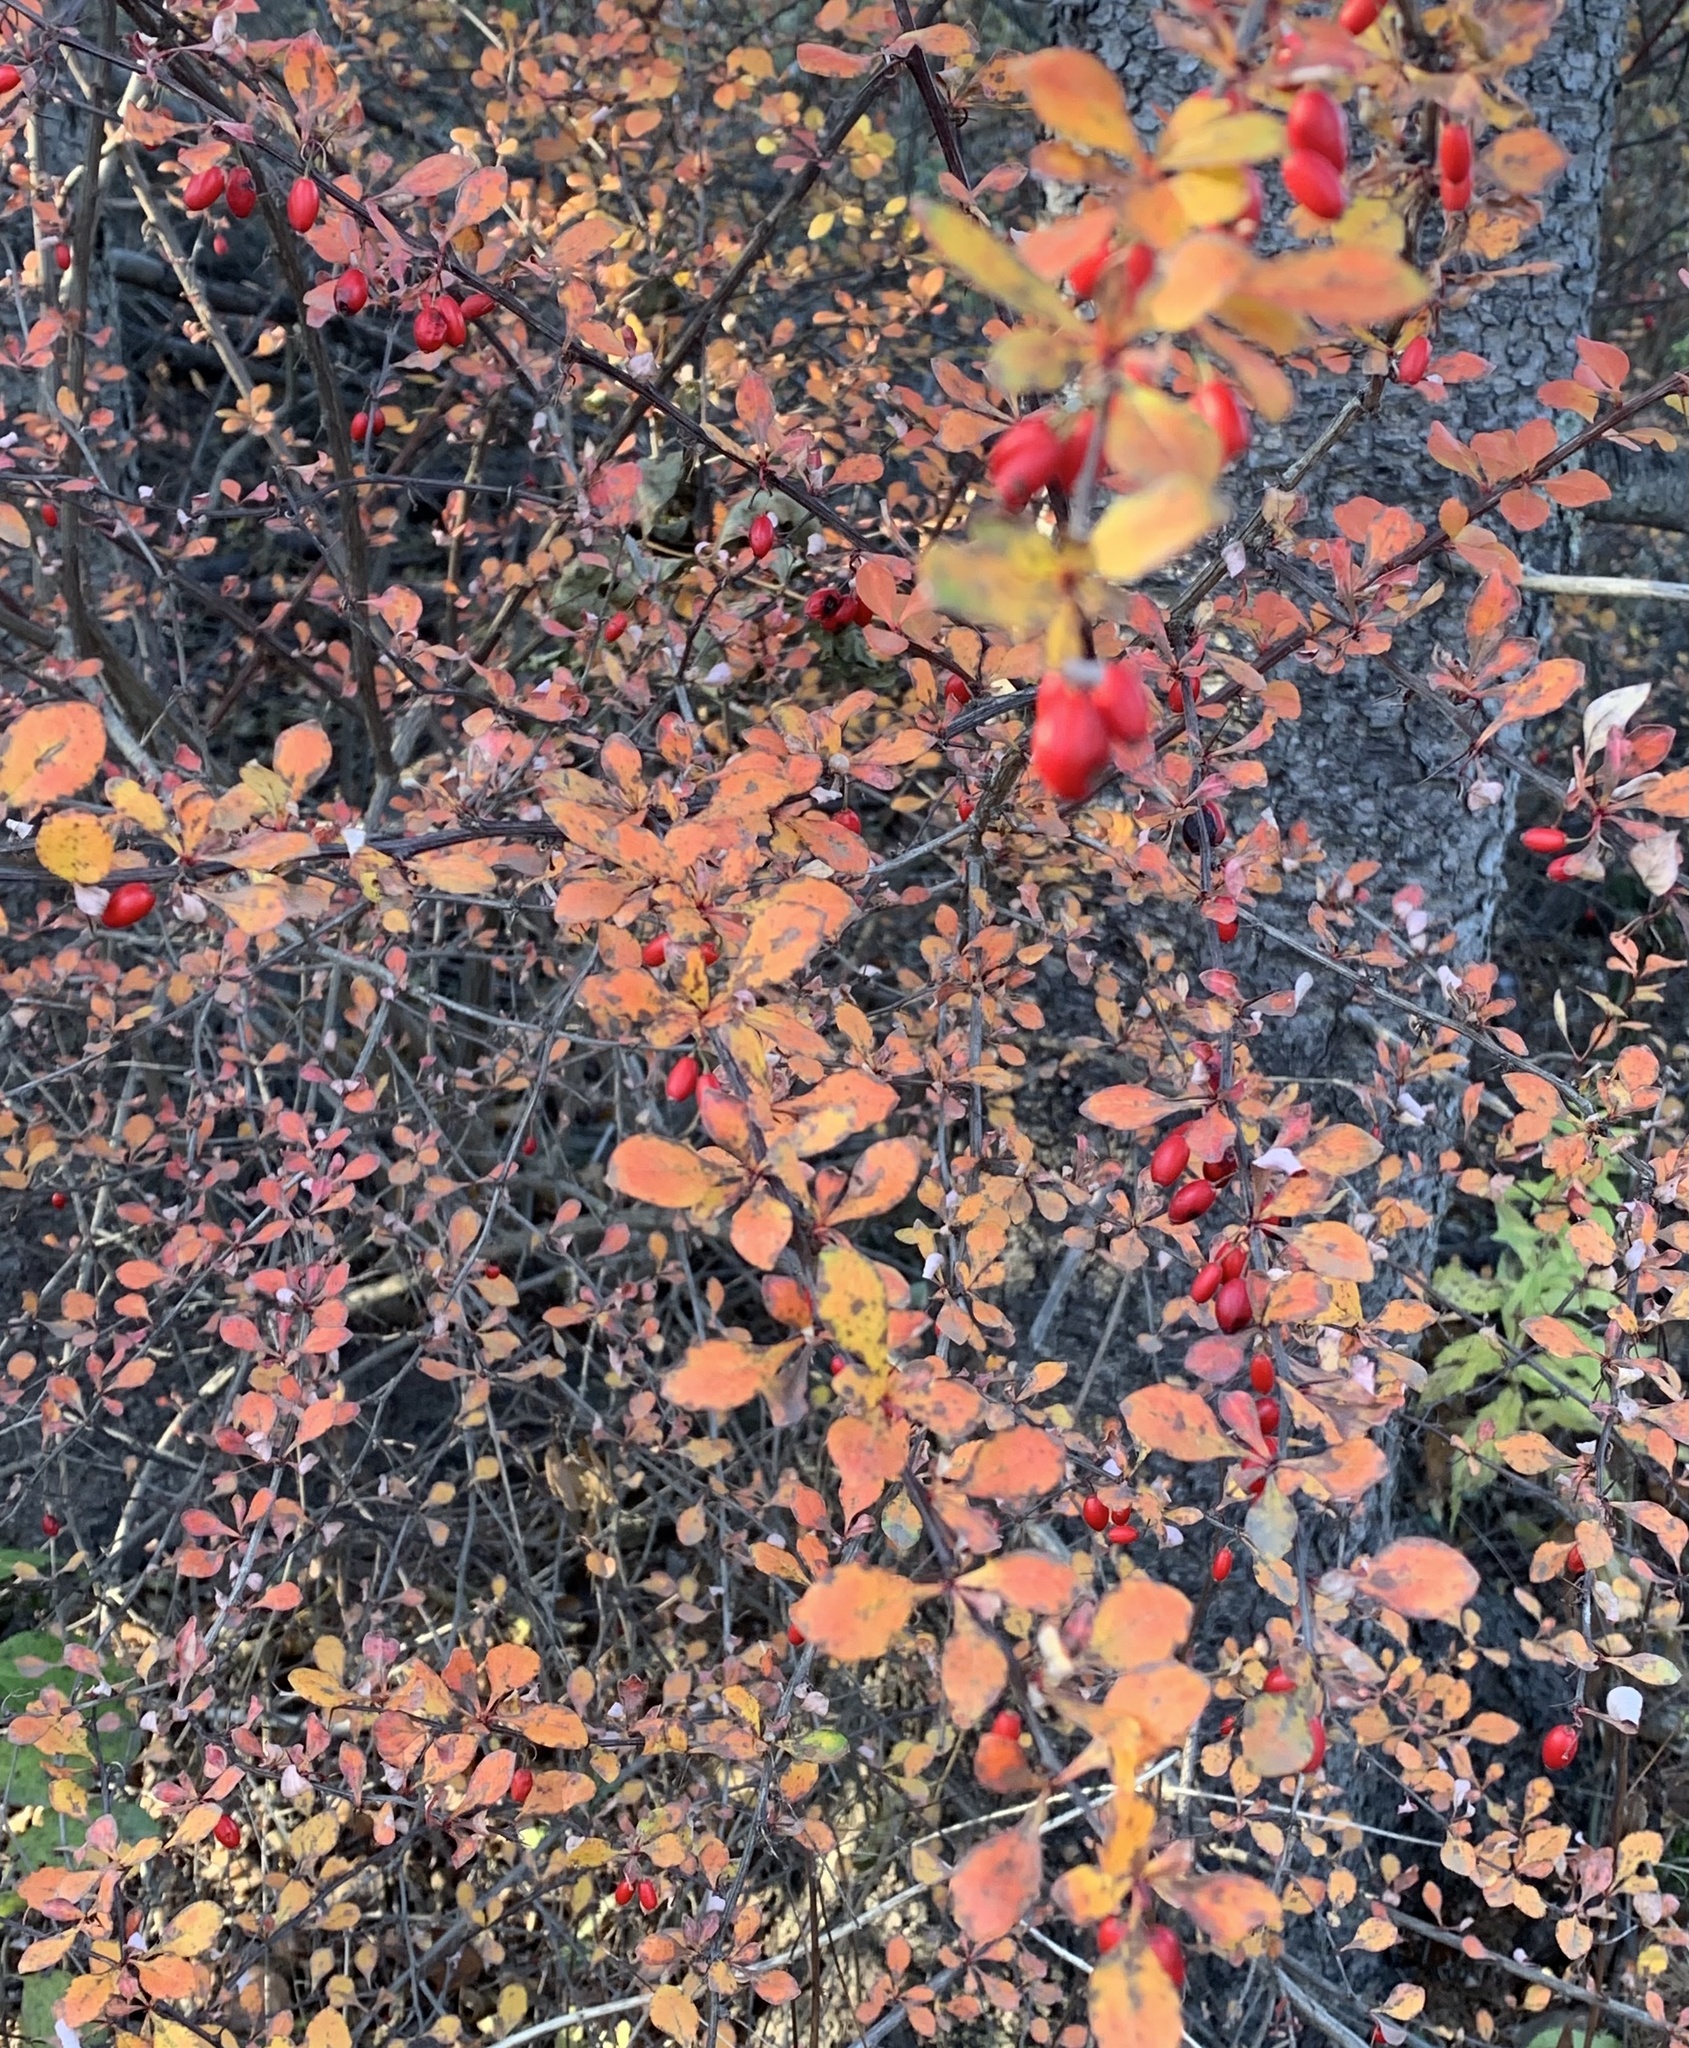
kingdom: Plantae
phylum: Tracheophyta
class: Magnoliopsida
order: Ranunculales
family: Berberidaceae
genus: Berberis
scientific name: Berberis thunbergii
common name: Japanese barberry
